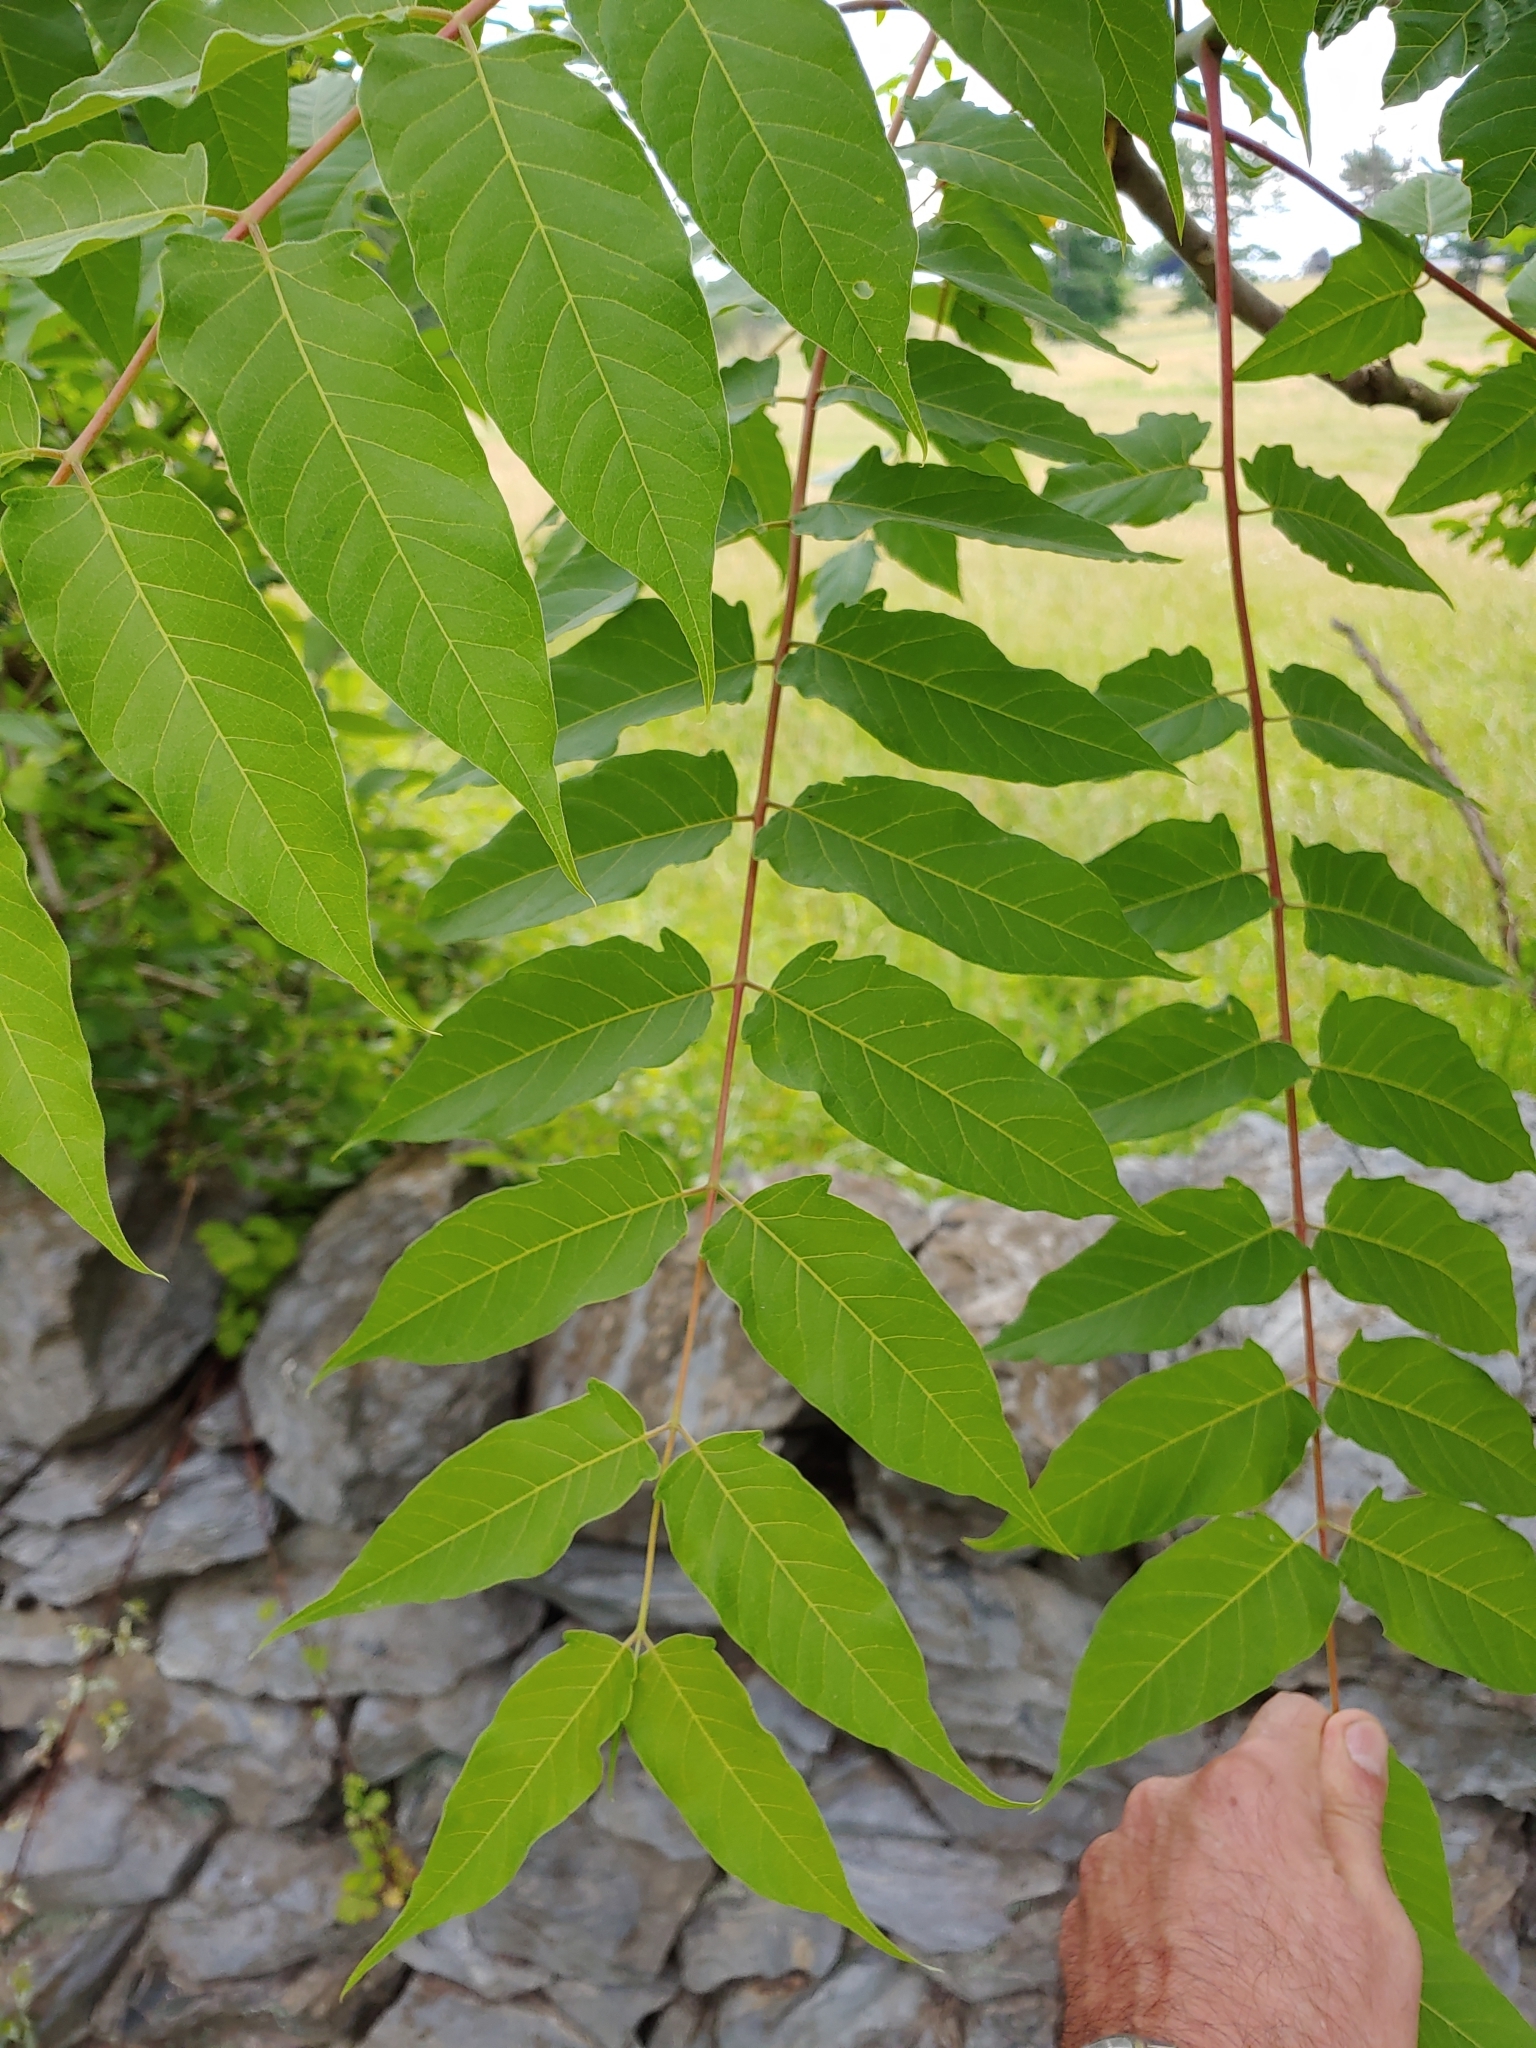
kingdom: Plantae
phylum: Tracheophyta
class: Magnoliopsida
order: Sapindales
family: Simaroubaceae
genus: Ailanthus
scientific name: Ailanthus altissima
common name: Tree-of-heaven
